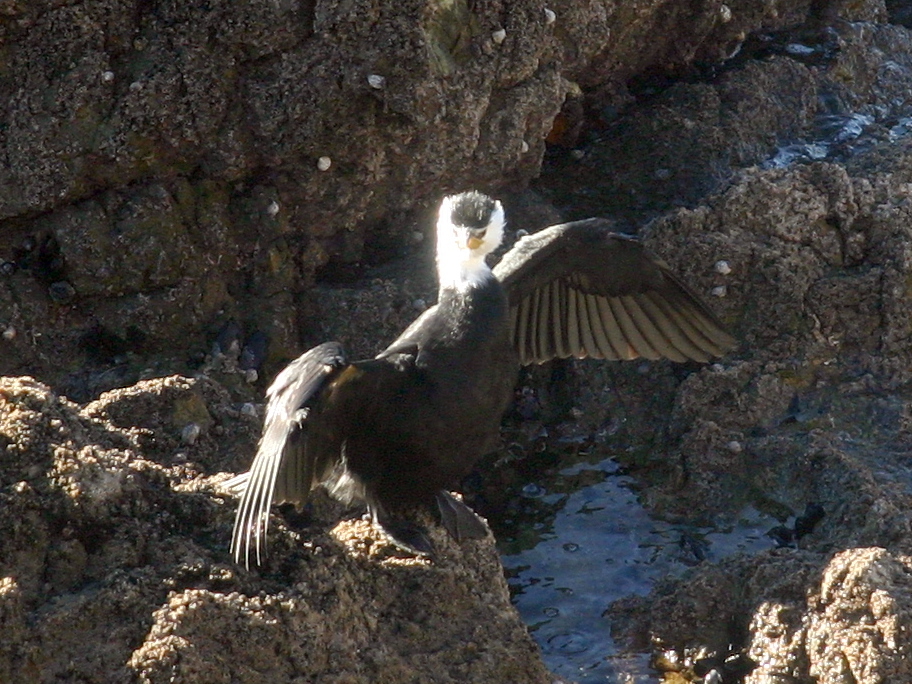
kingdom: Animalia
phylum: Chordata
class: Aves
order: Suliformes
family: Phalacrocoracidae
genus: Microcarbo
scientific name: Microcarbo melanoleucos
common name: Little pied cormorant
